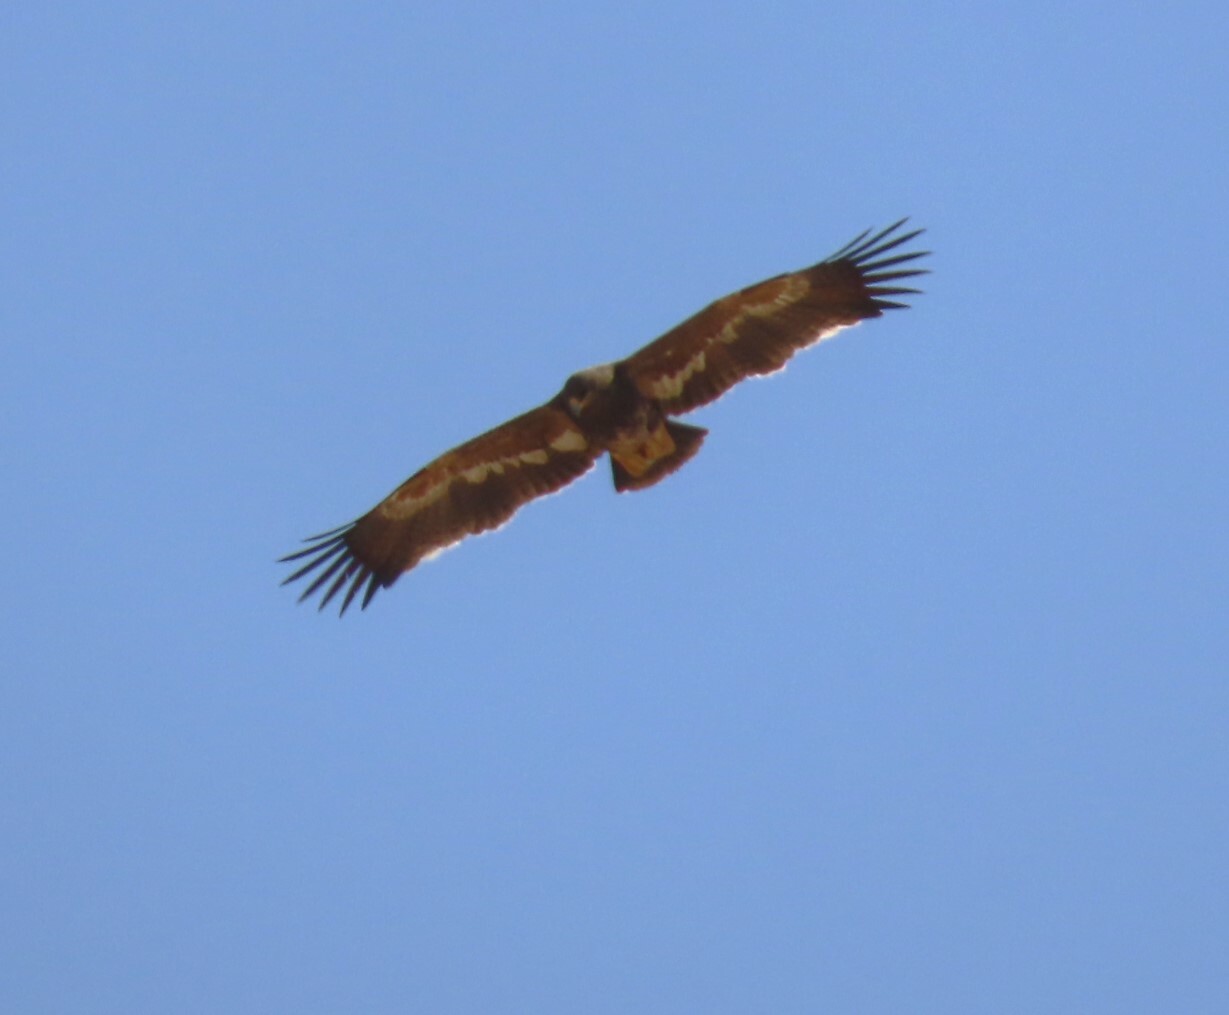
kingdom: Animalia
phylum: Chordata
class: Aves
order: Accipitriformes
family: Accipitridae
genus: Aquila
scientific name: Aquila nipalensis
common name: Steppe eagle
